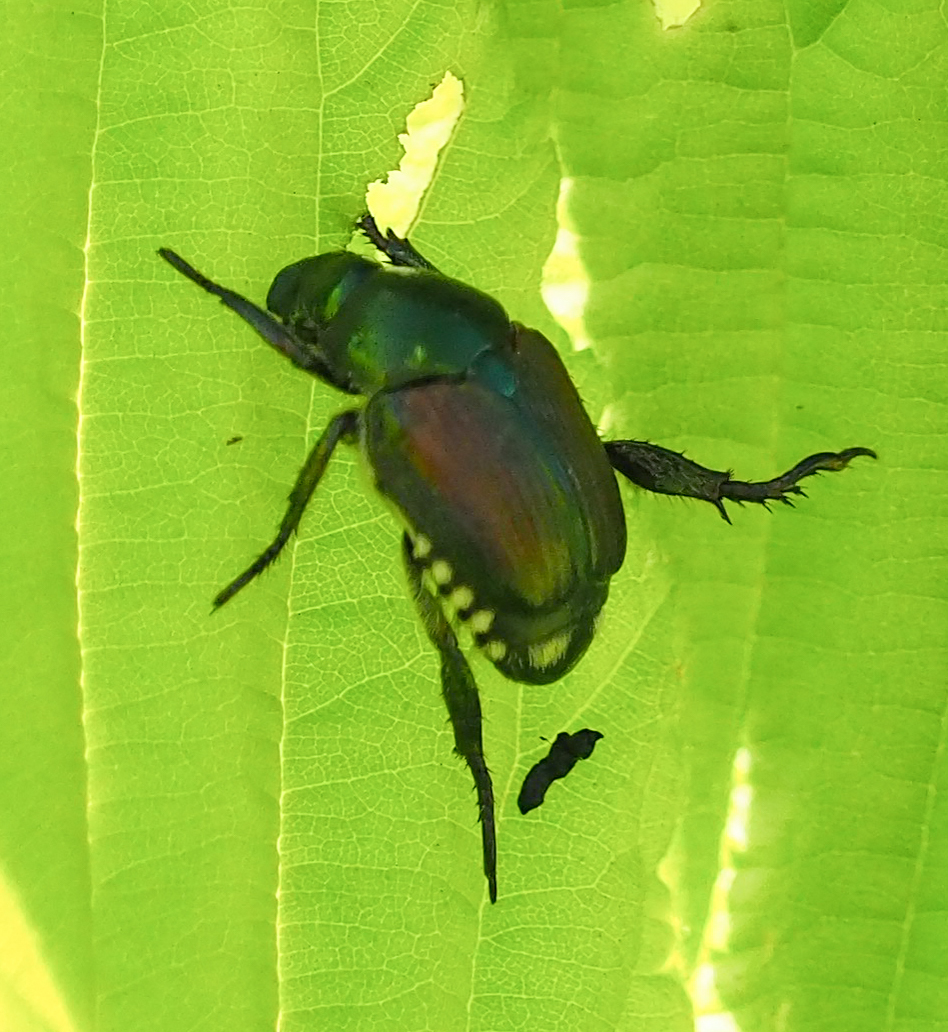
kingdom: Animalia
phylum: Arthropoda
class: Insecta
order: Coleoptera
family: Scarabaeidae
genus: Popillia
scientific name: Popillia japonica
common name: Japanese beetle
